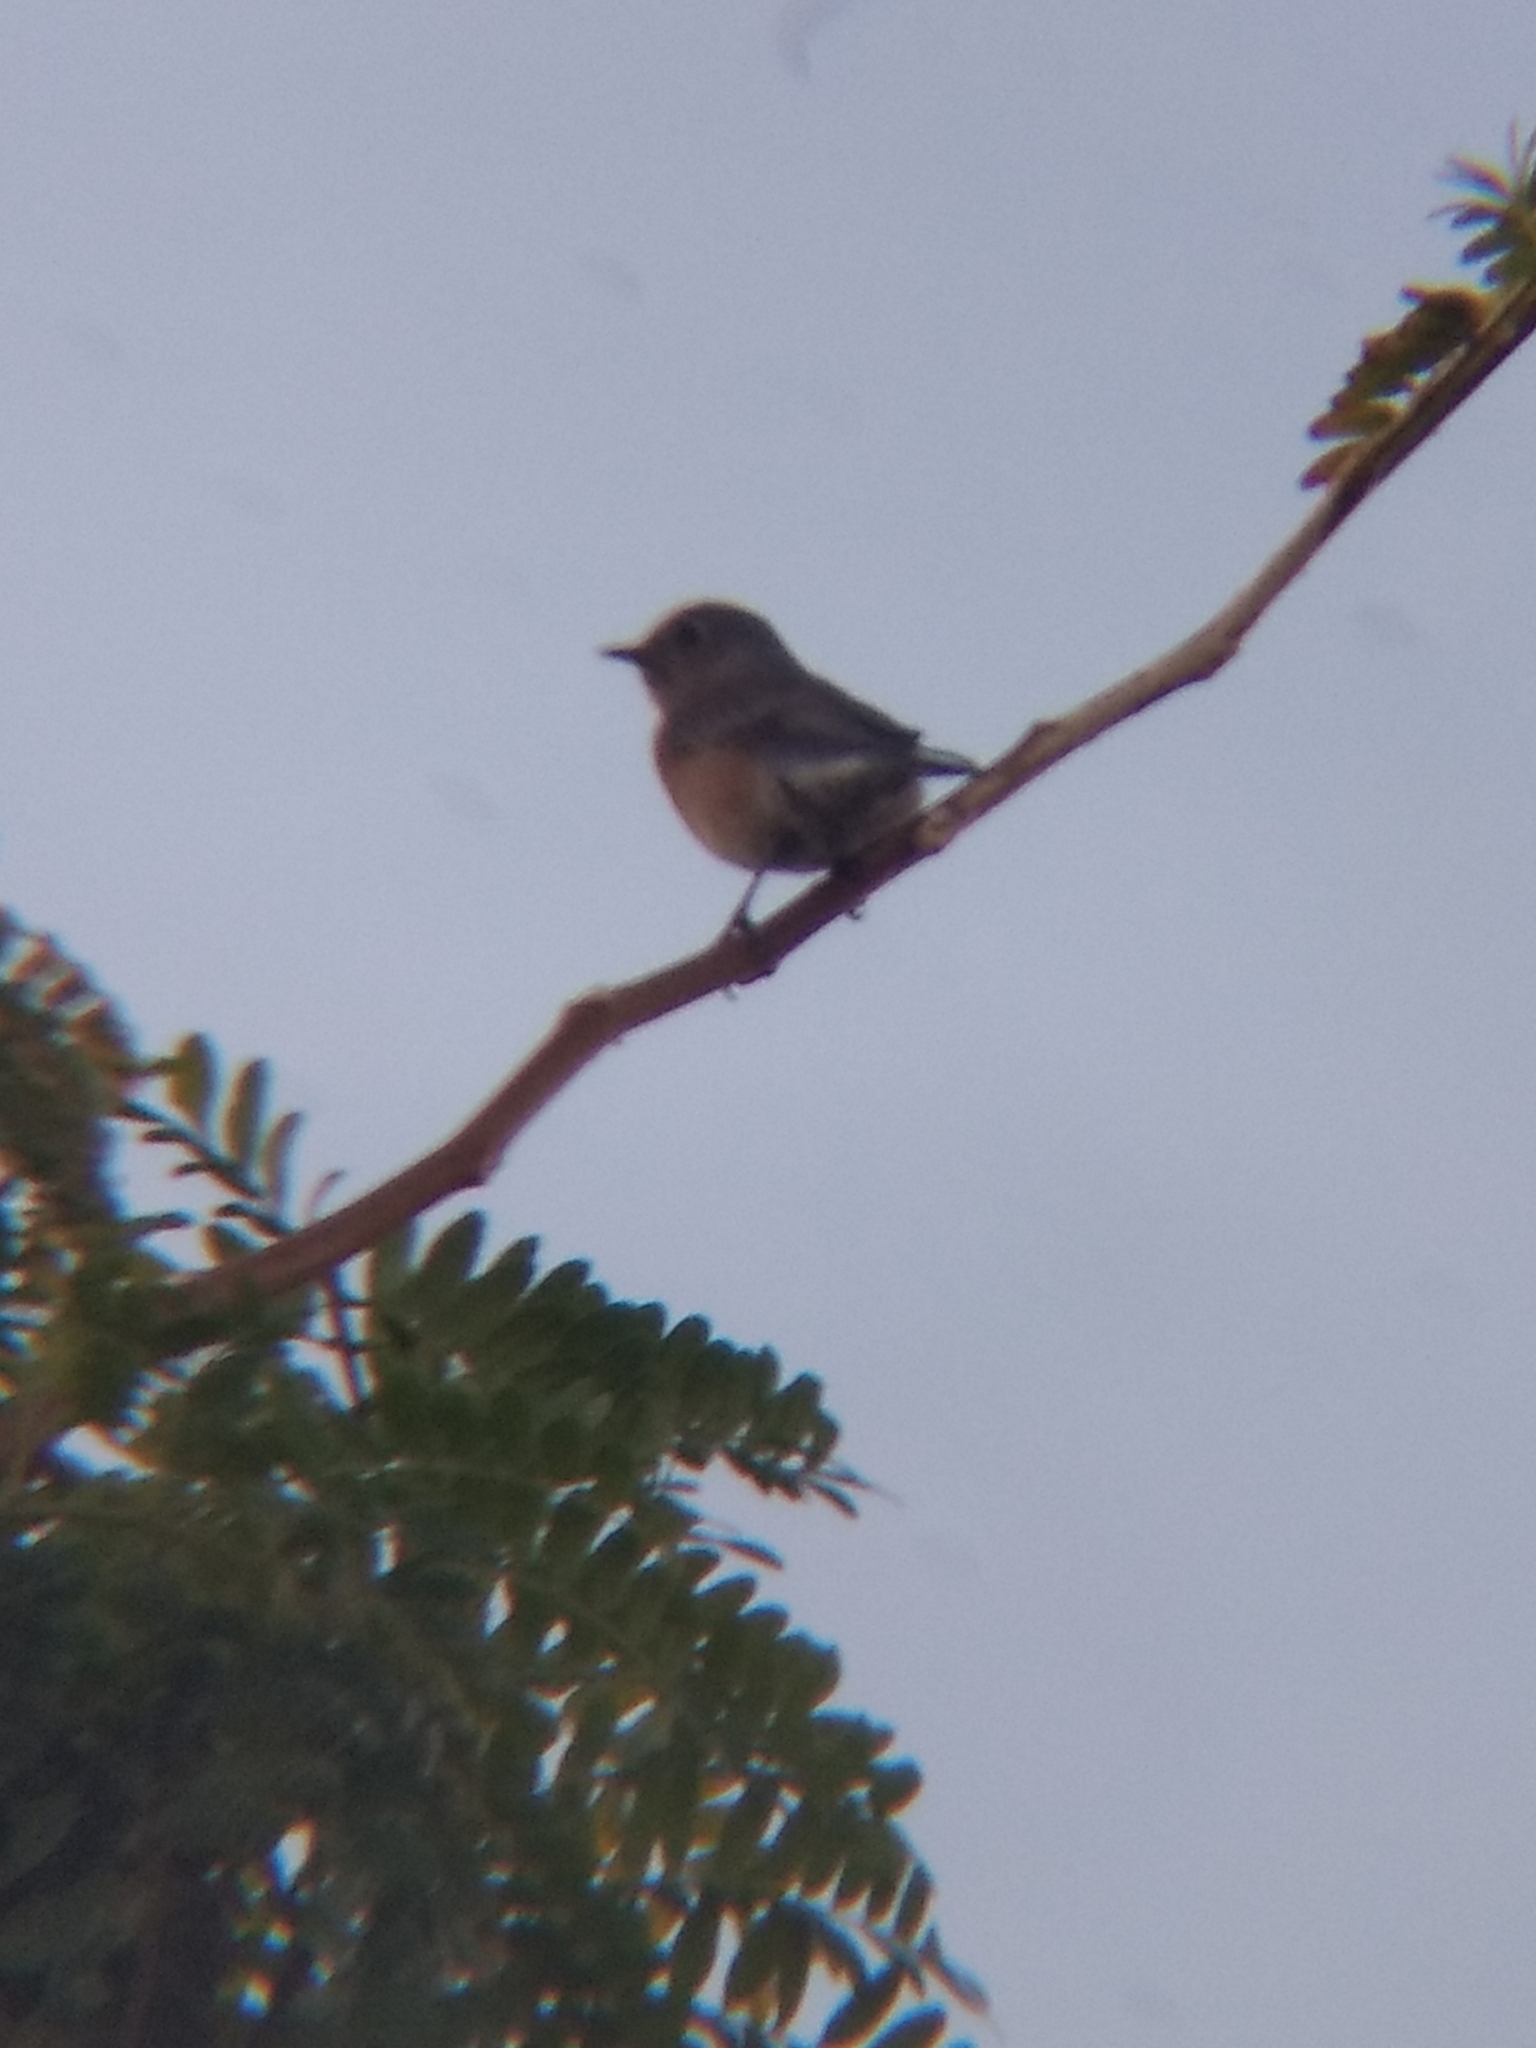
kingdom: Animalia
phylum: Chordata
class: Aves
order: Passeriformes
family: Turdidae
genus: Sialia
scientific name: Sialia mexicana
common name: Western bluebird
